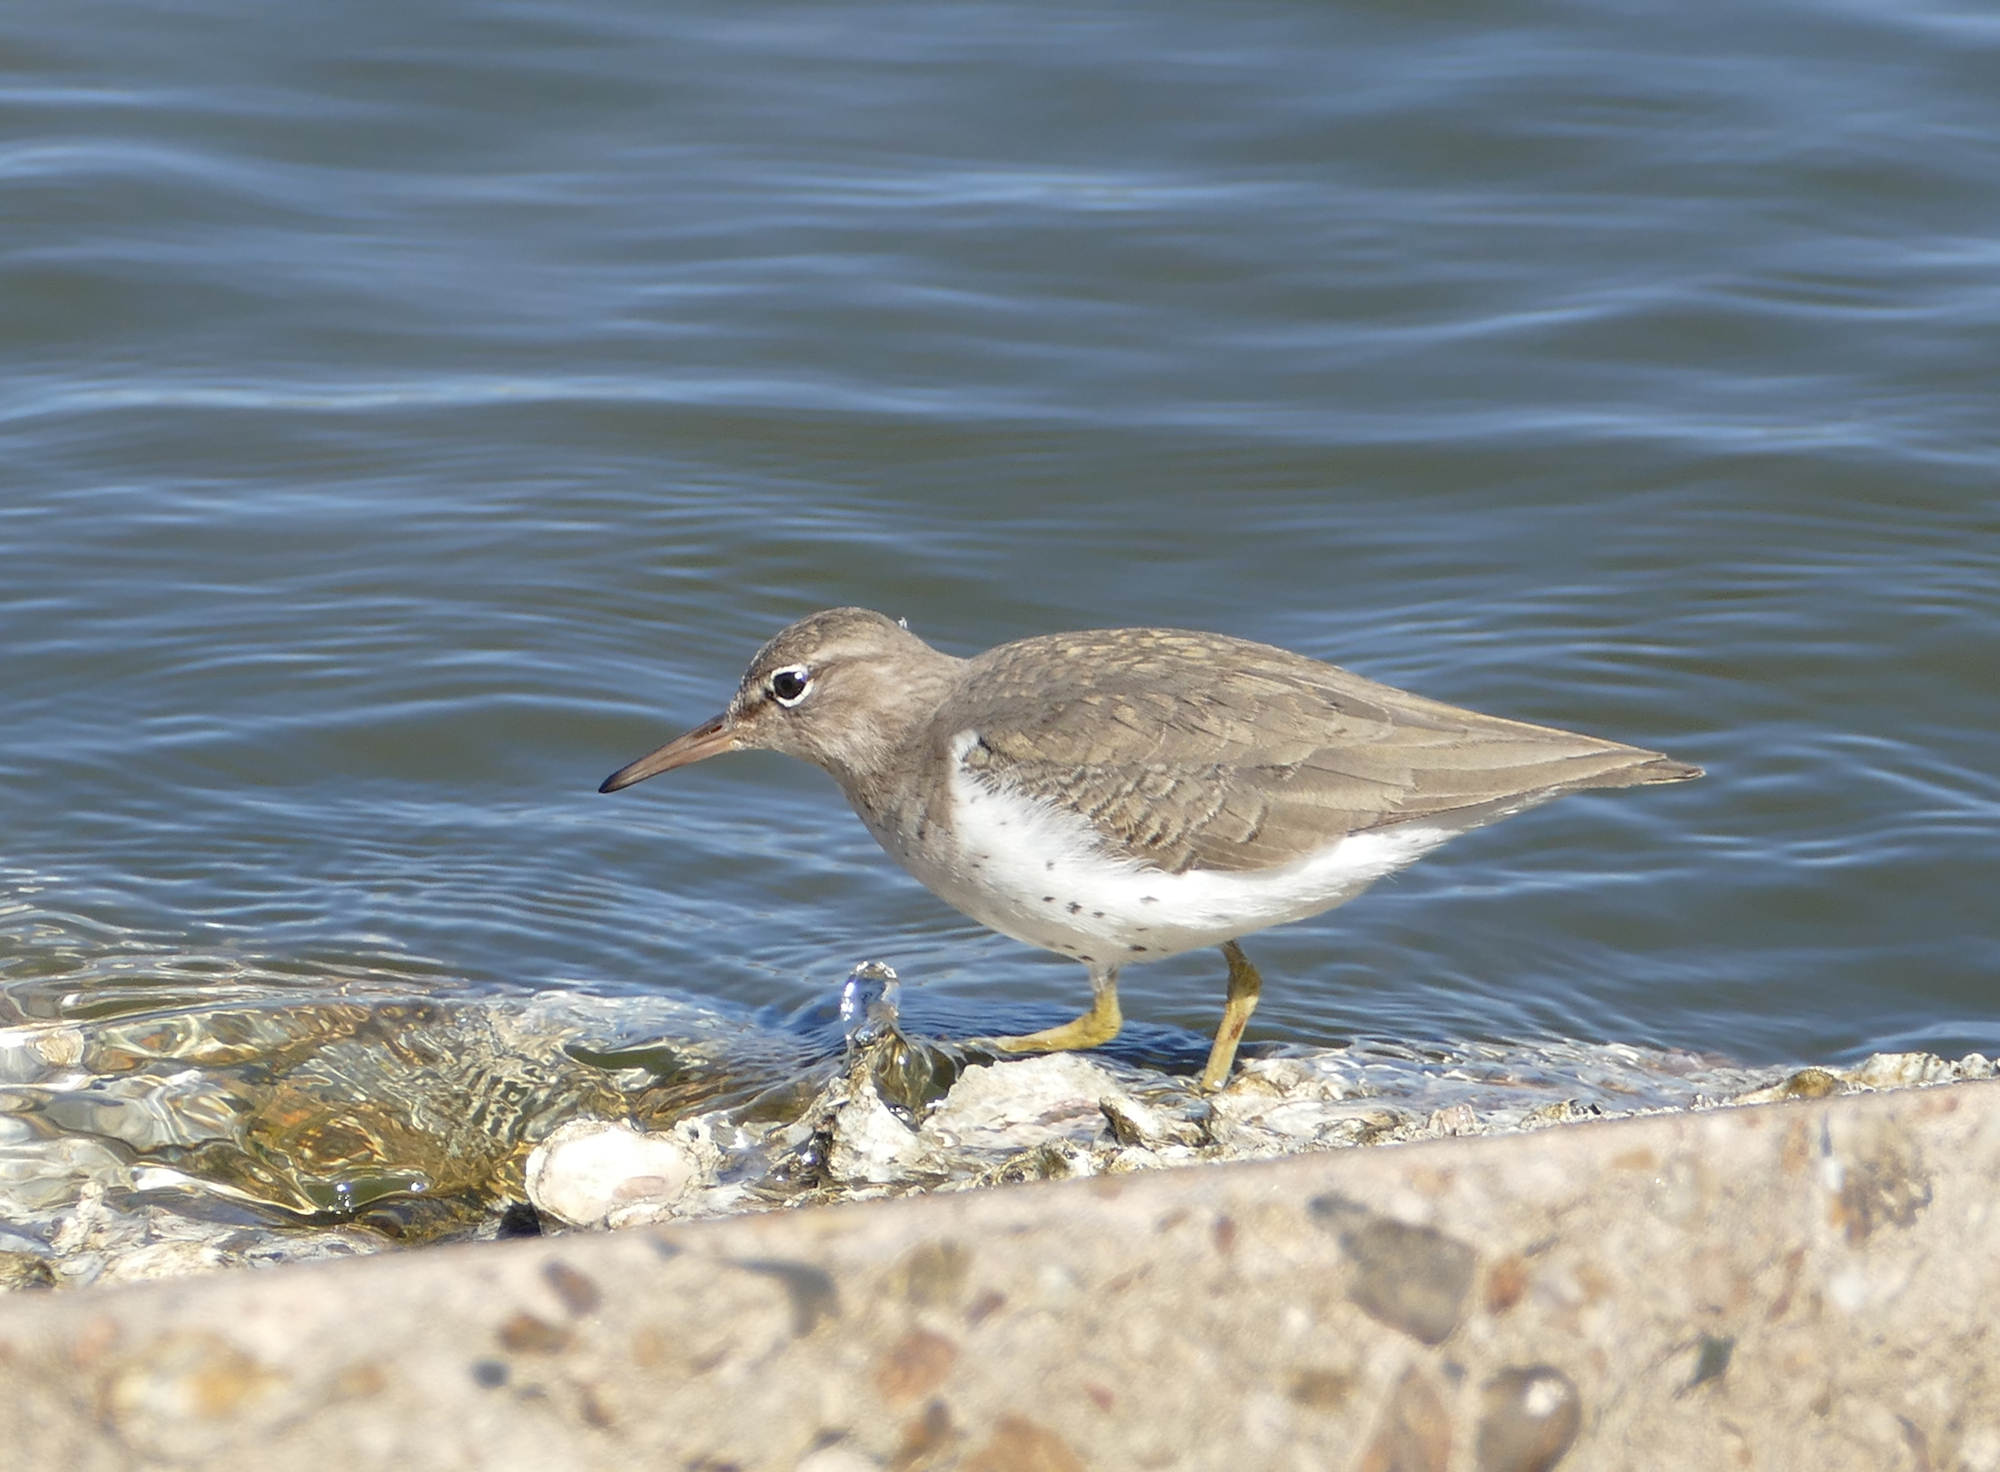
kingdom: Animalia
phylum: Chordata
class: Aves
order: Charadriiformes
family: Scolopacidae
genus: Actitis
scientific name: Actitis macularius
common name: Spotted sandpiper
